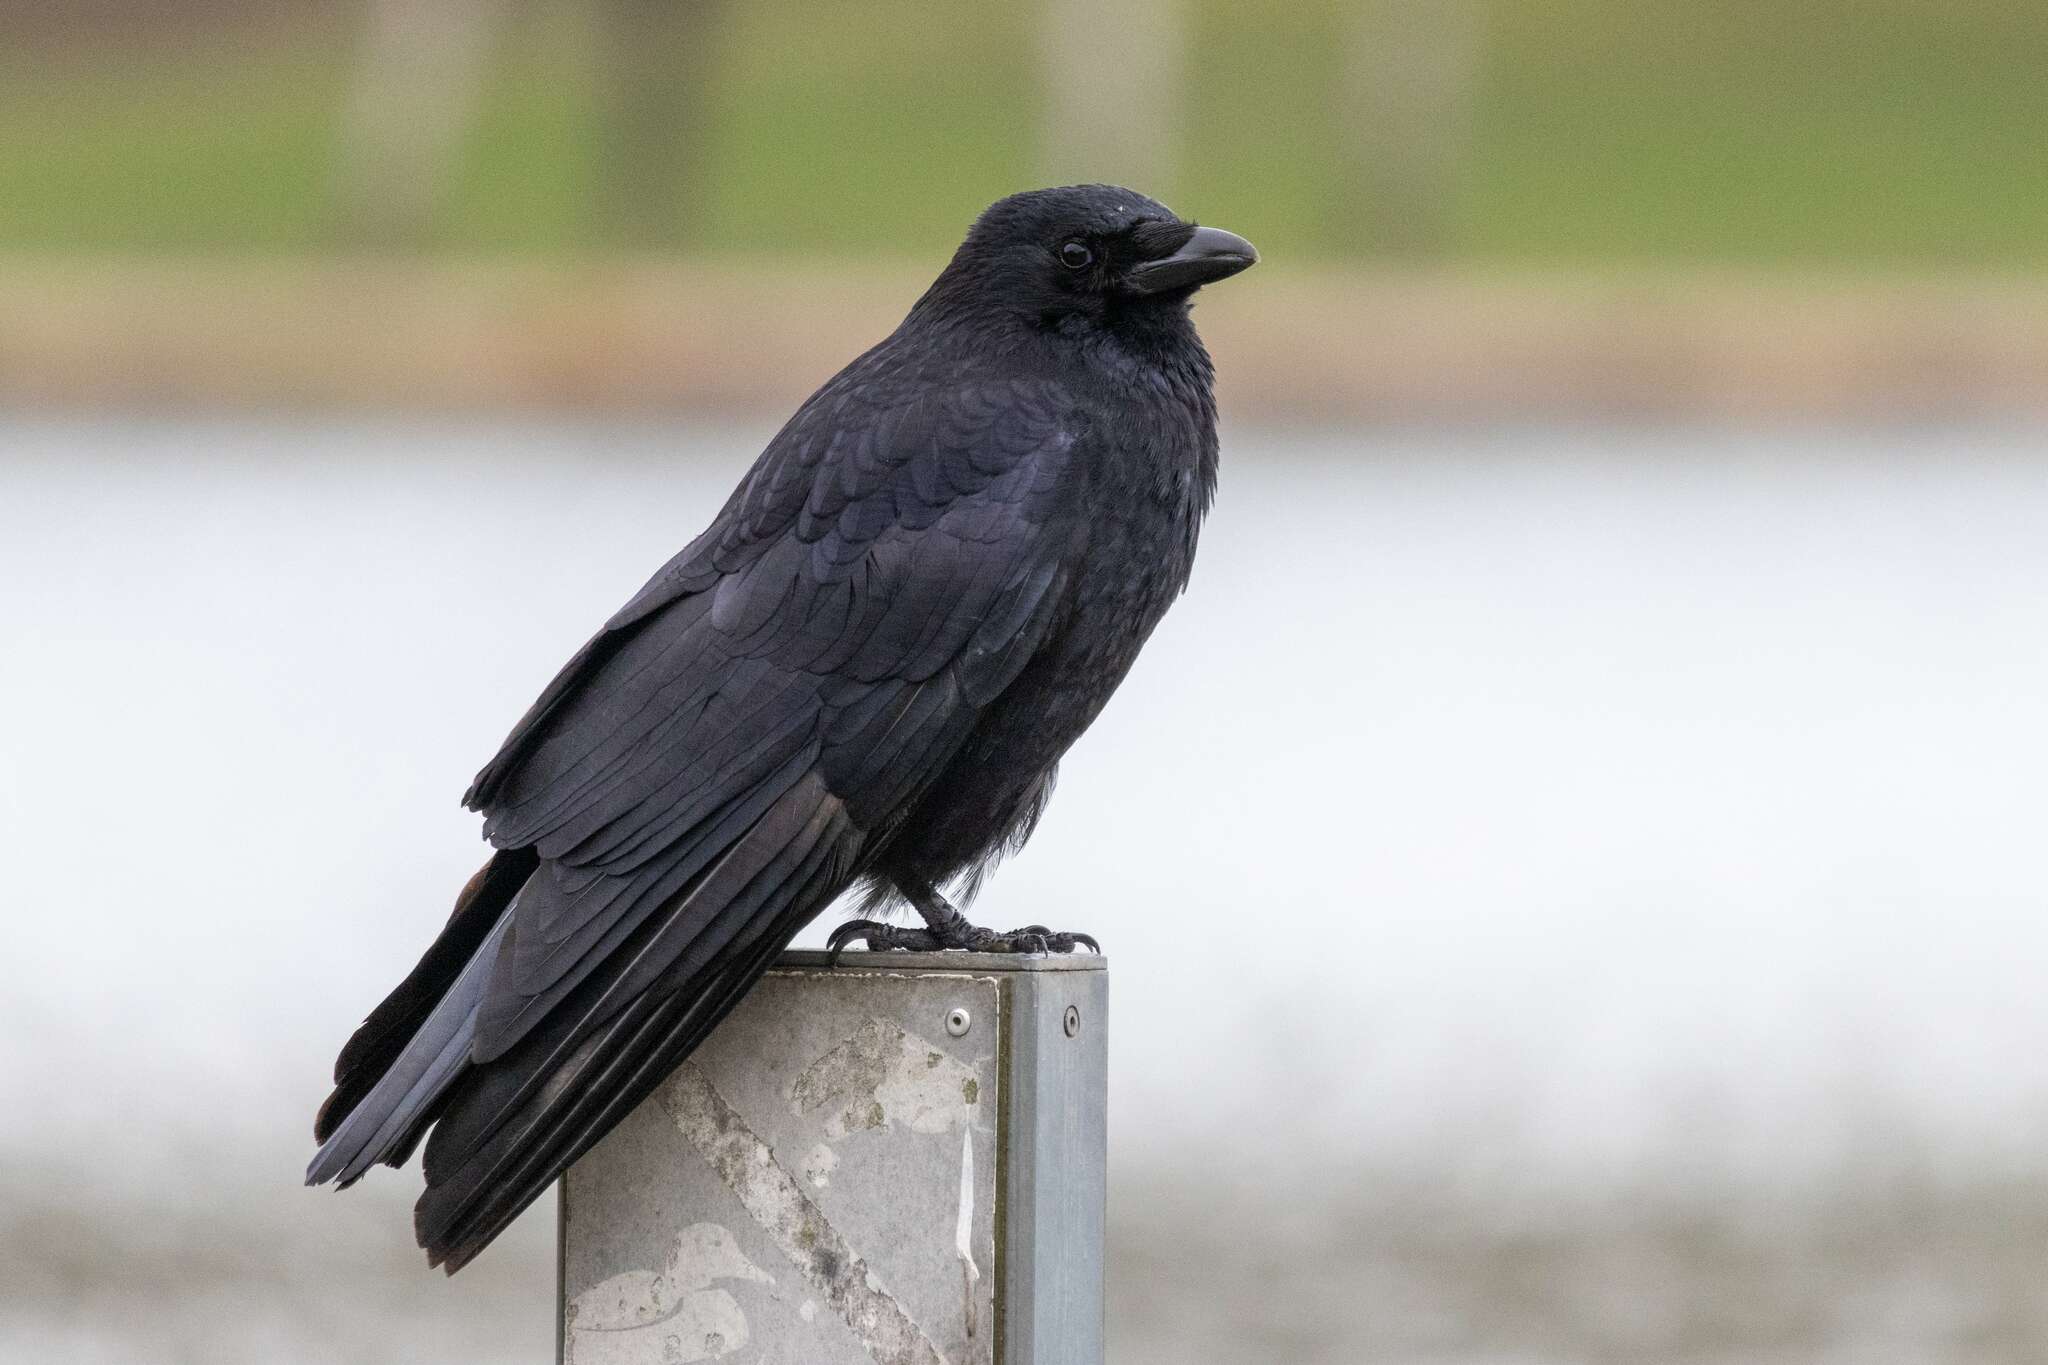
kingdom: Animalia
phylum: Chordata
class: Aves
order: Passeriformes
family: Corvidae
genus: Corvus
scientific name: Corvus corone
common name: Carrion crow
